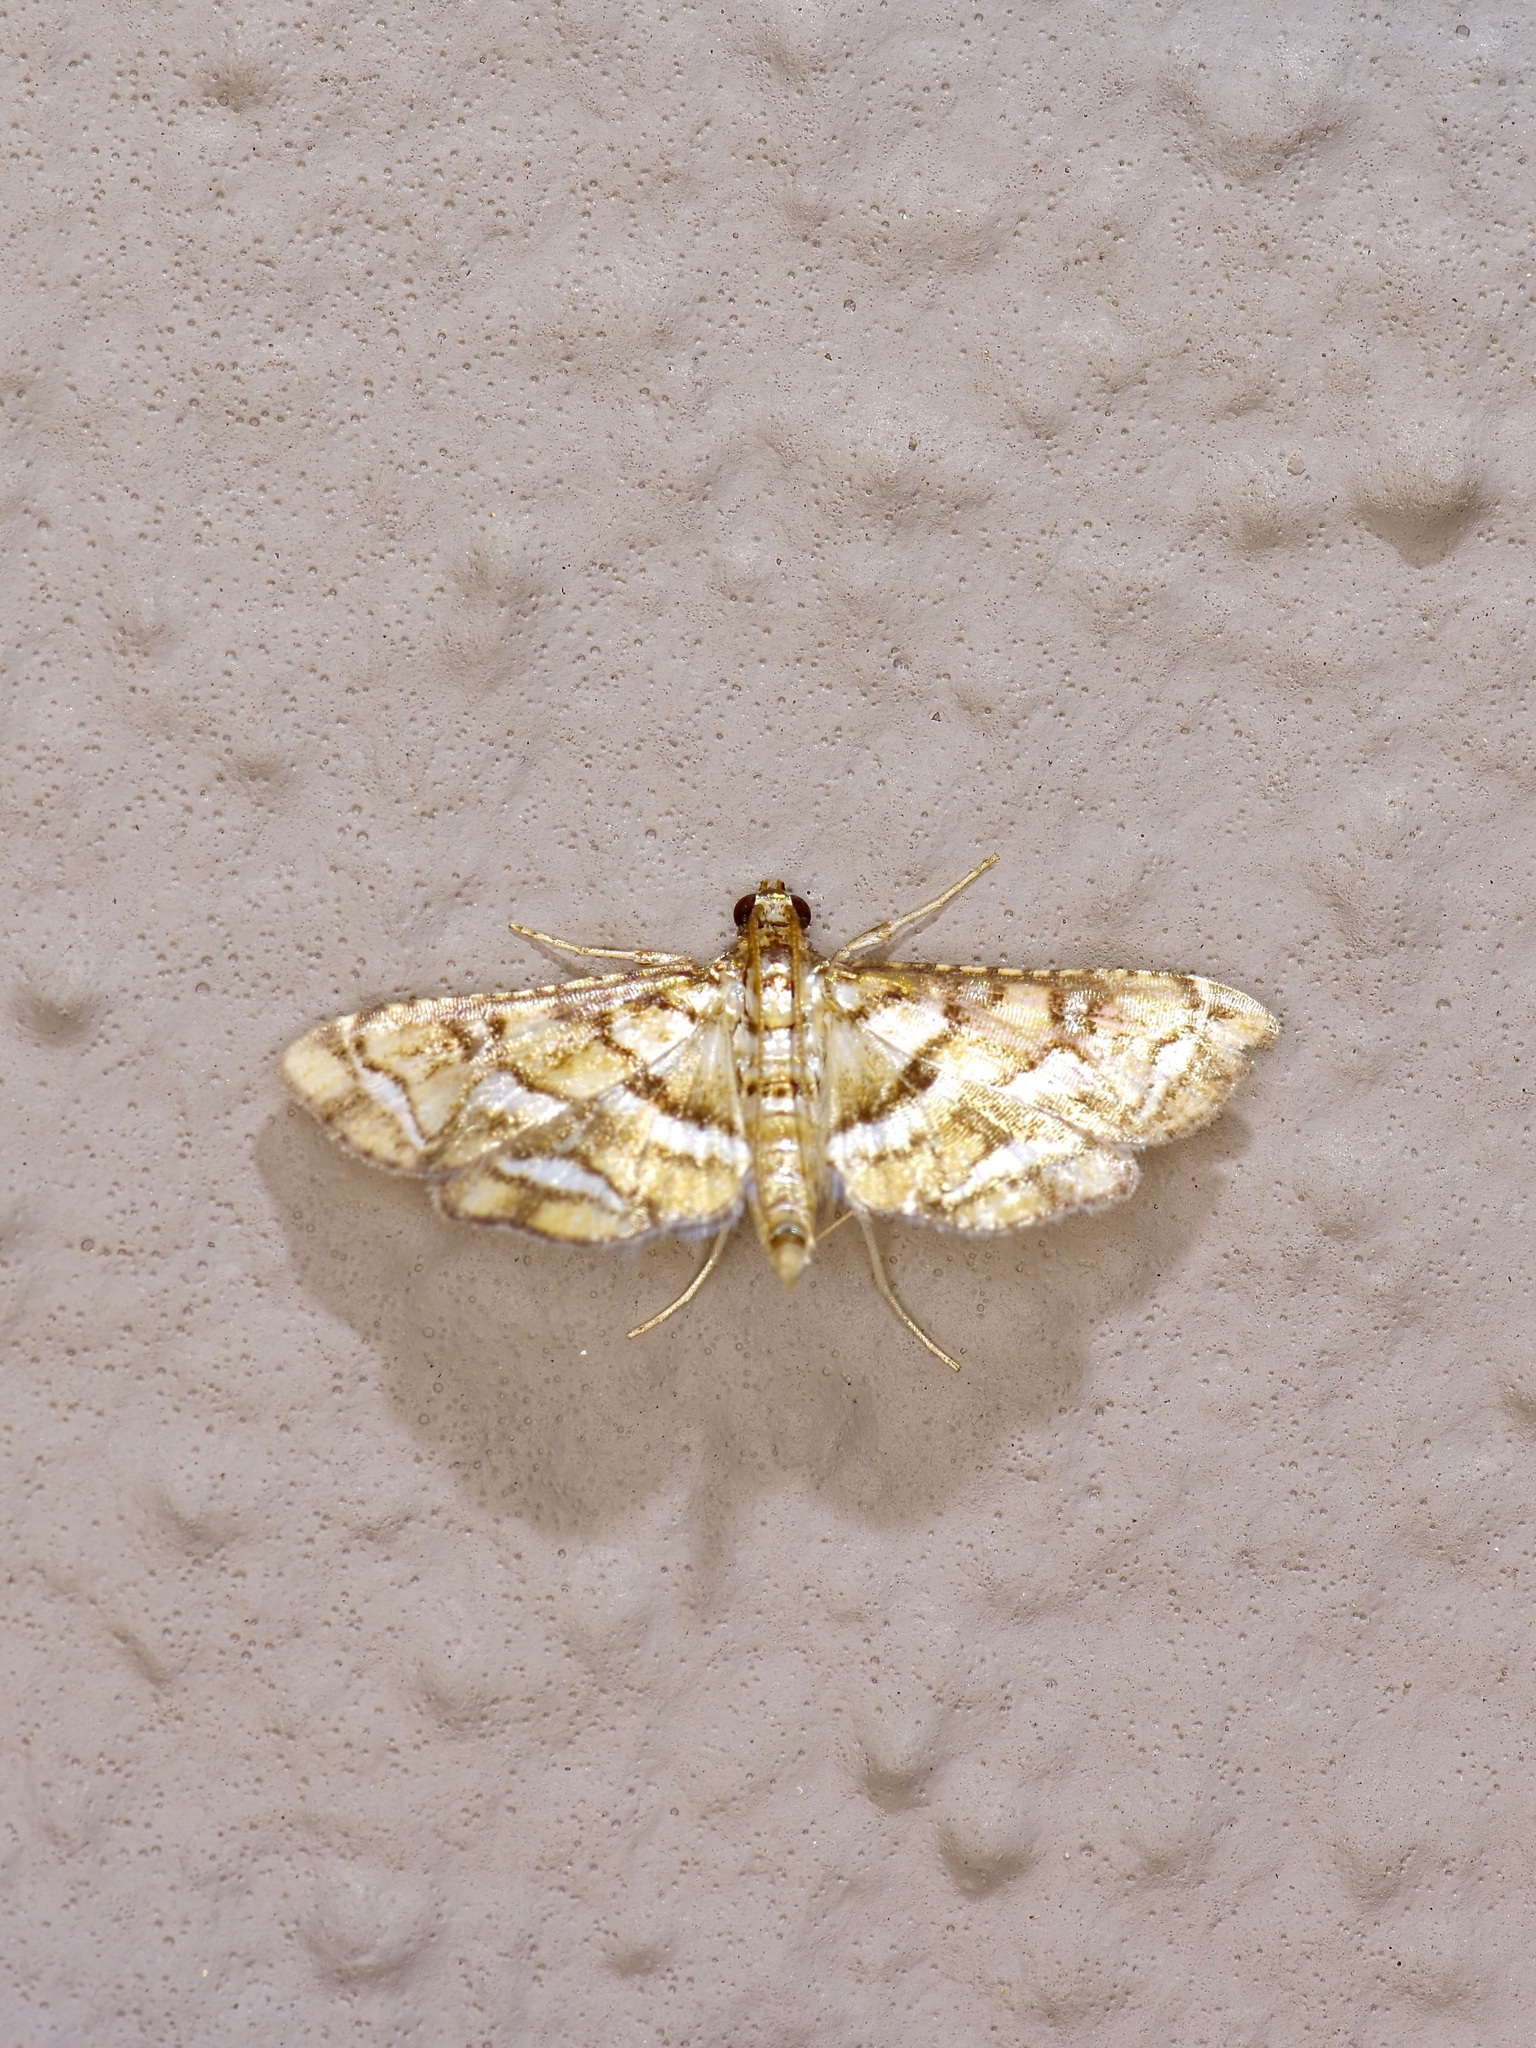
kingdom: Animalia
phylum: Arthropoda
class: Insecta
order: Lepidoptera
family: Crambidae
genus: Hileithia
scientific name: Hileithia magualis
